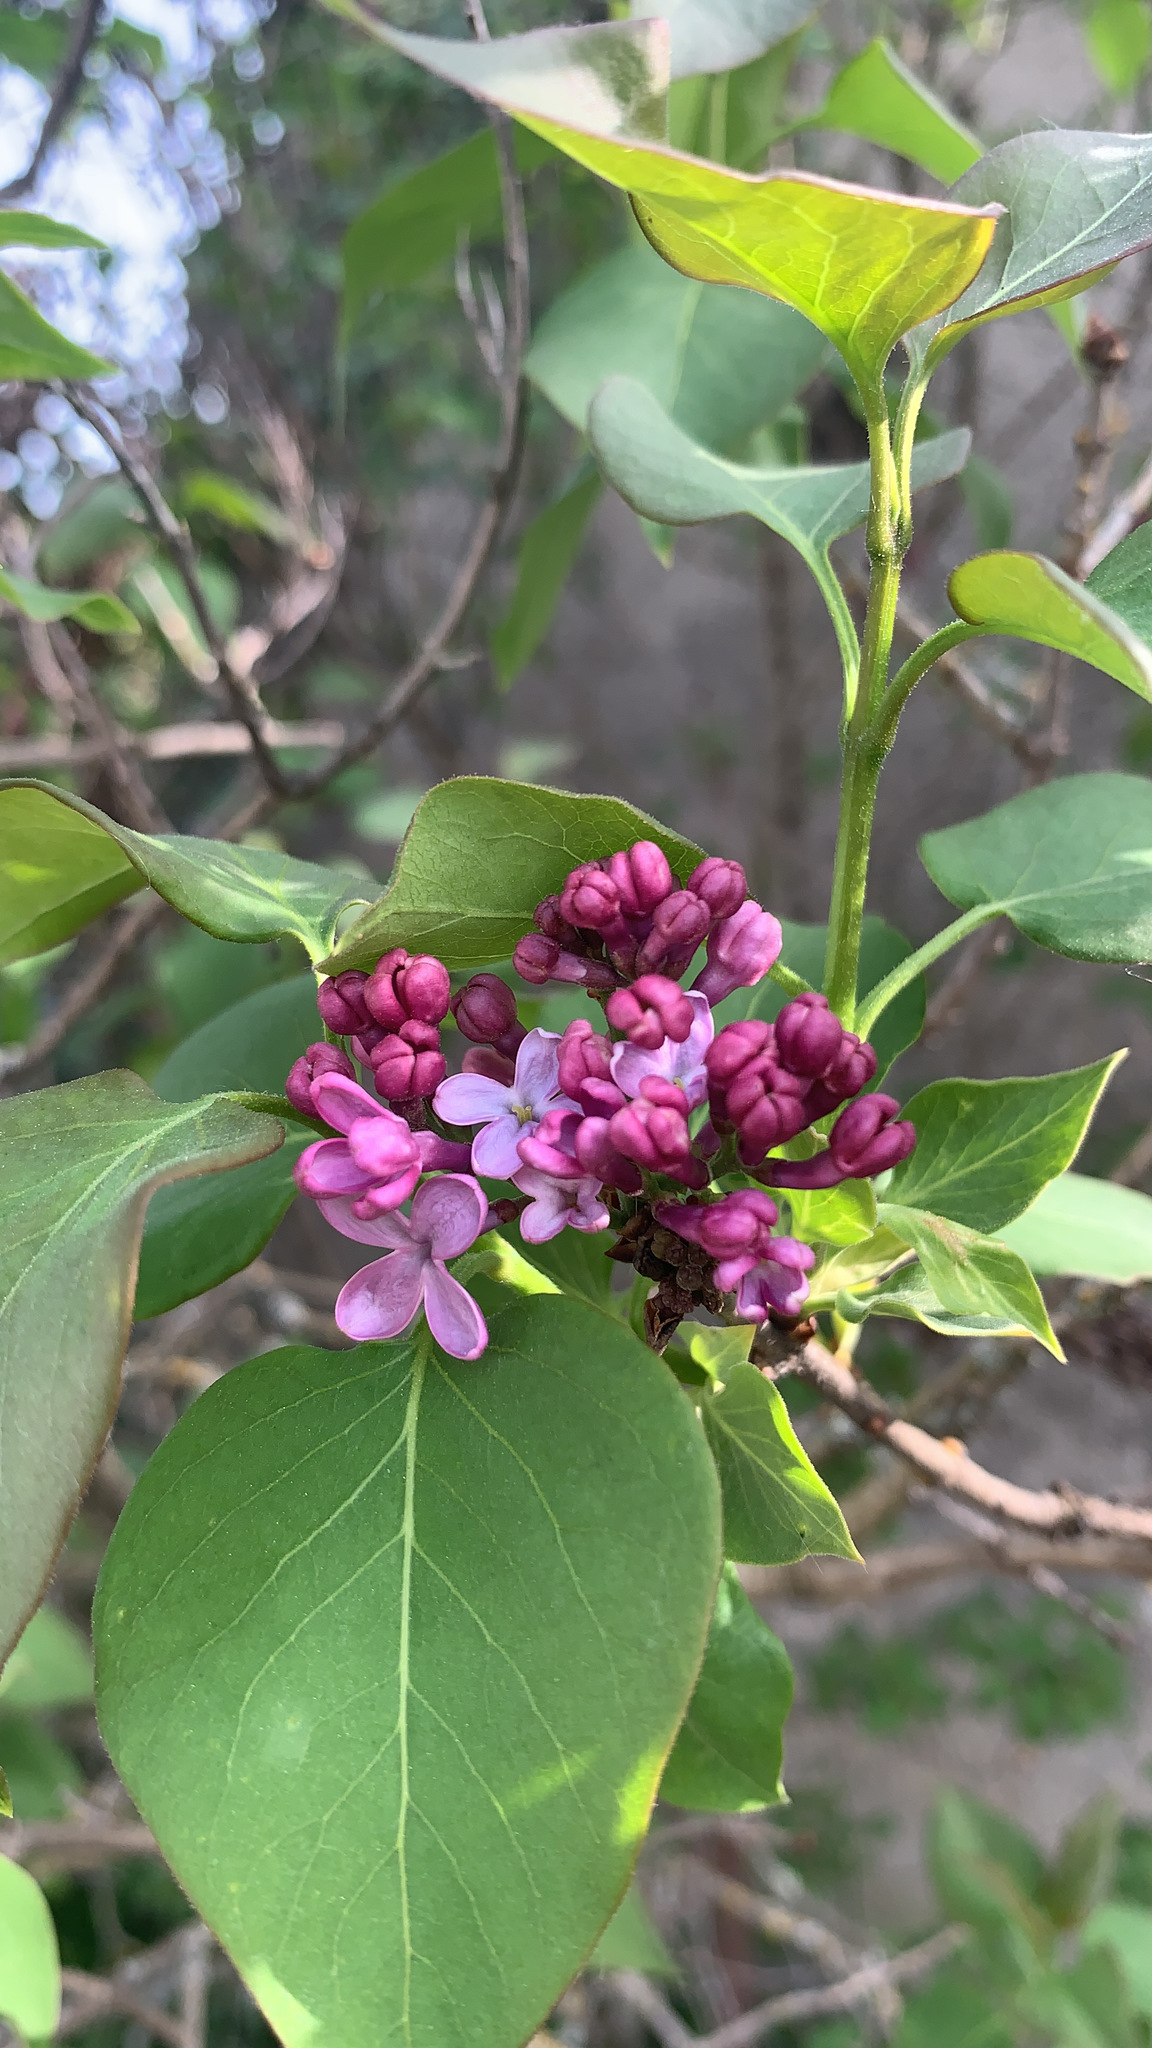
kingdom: Plantae
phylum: Tracheophyta
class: Magnoliopsida
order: Lamiales
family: Oleaceae
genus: Syringa
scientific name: Syringa vulgaris
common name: Common lilac
